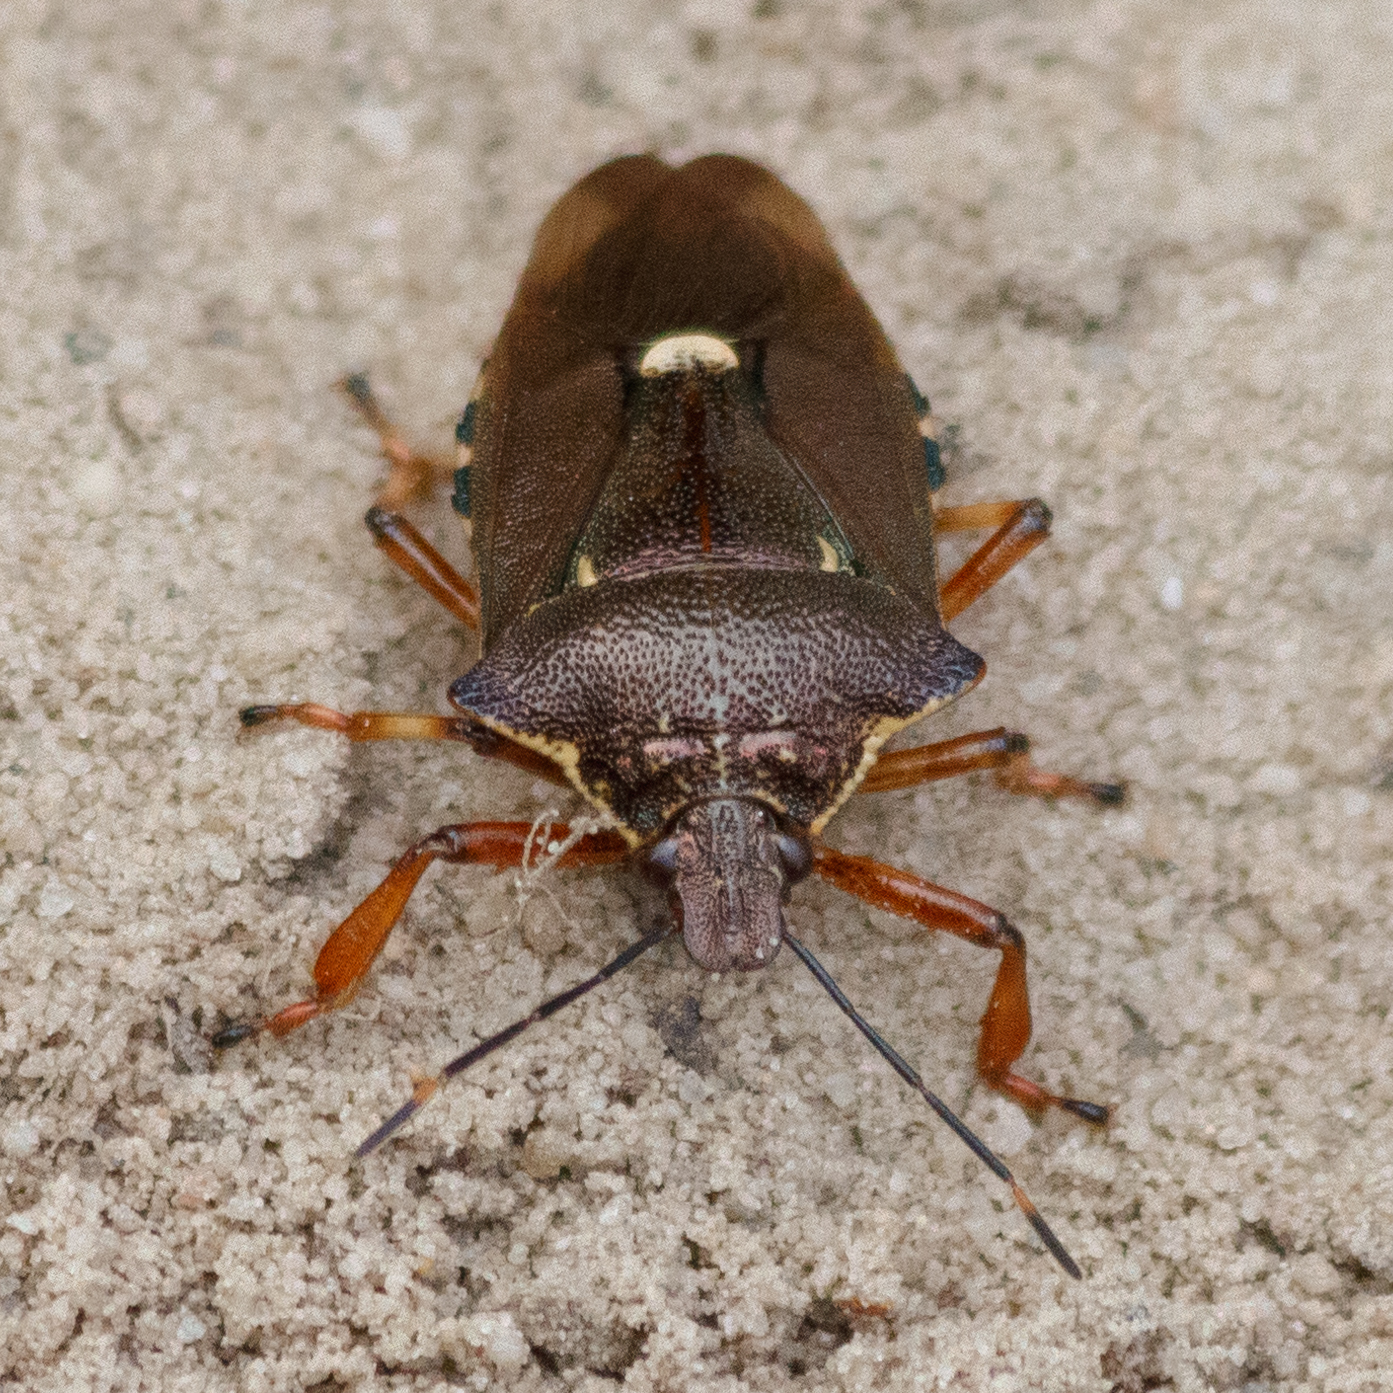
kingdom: Animalia
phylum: Arthropoda
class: Insecta
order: Hemiptera
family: Pentatomidae
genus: Pinthaeus
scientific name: Pinthaeus sanguinipes
